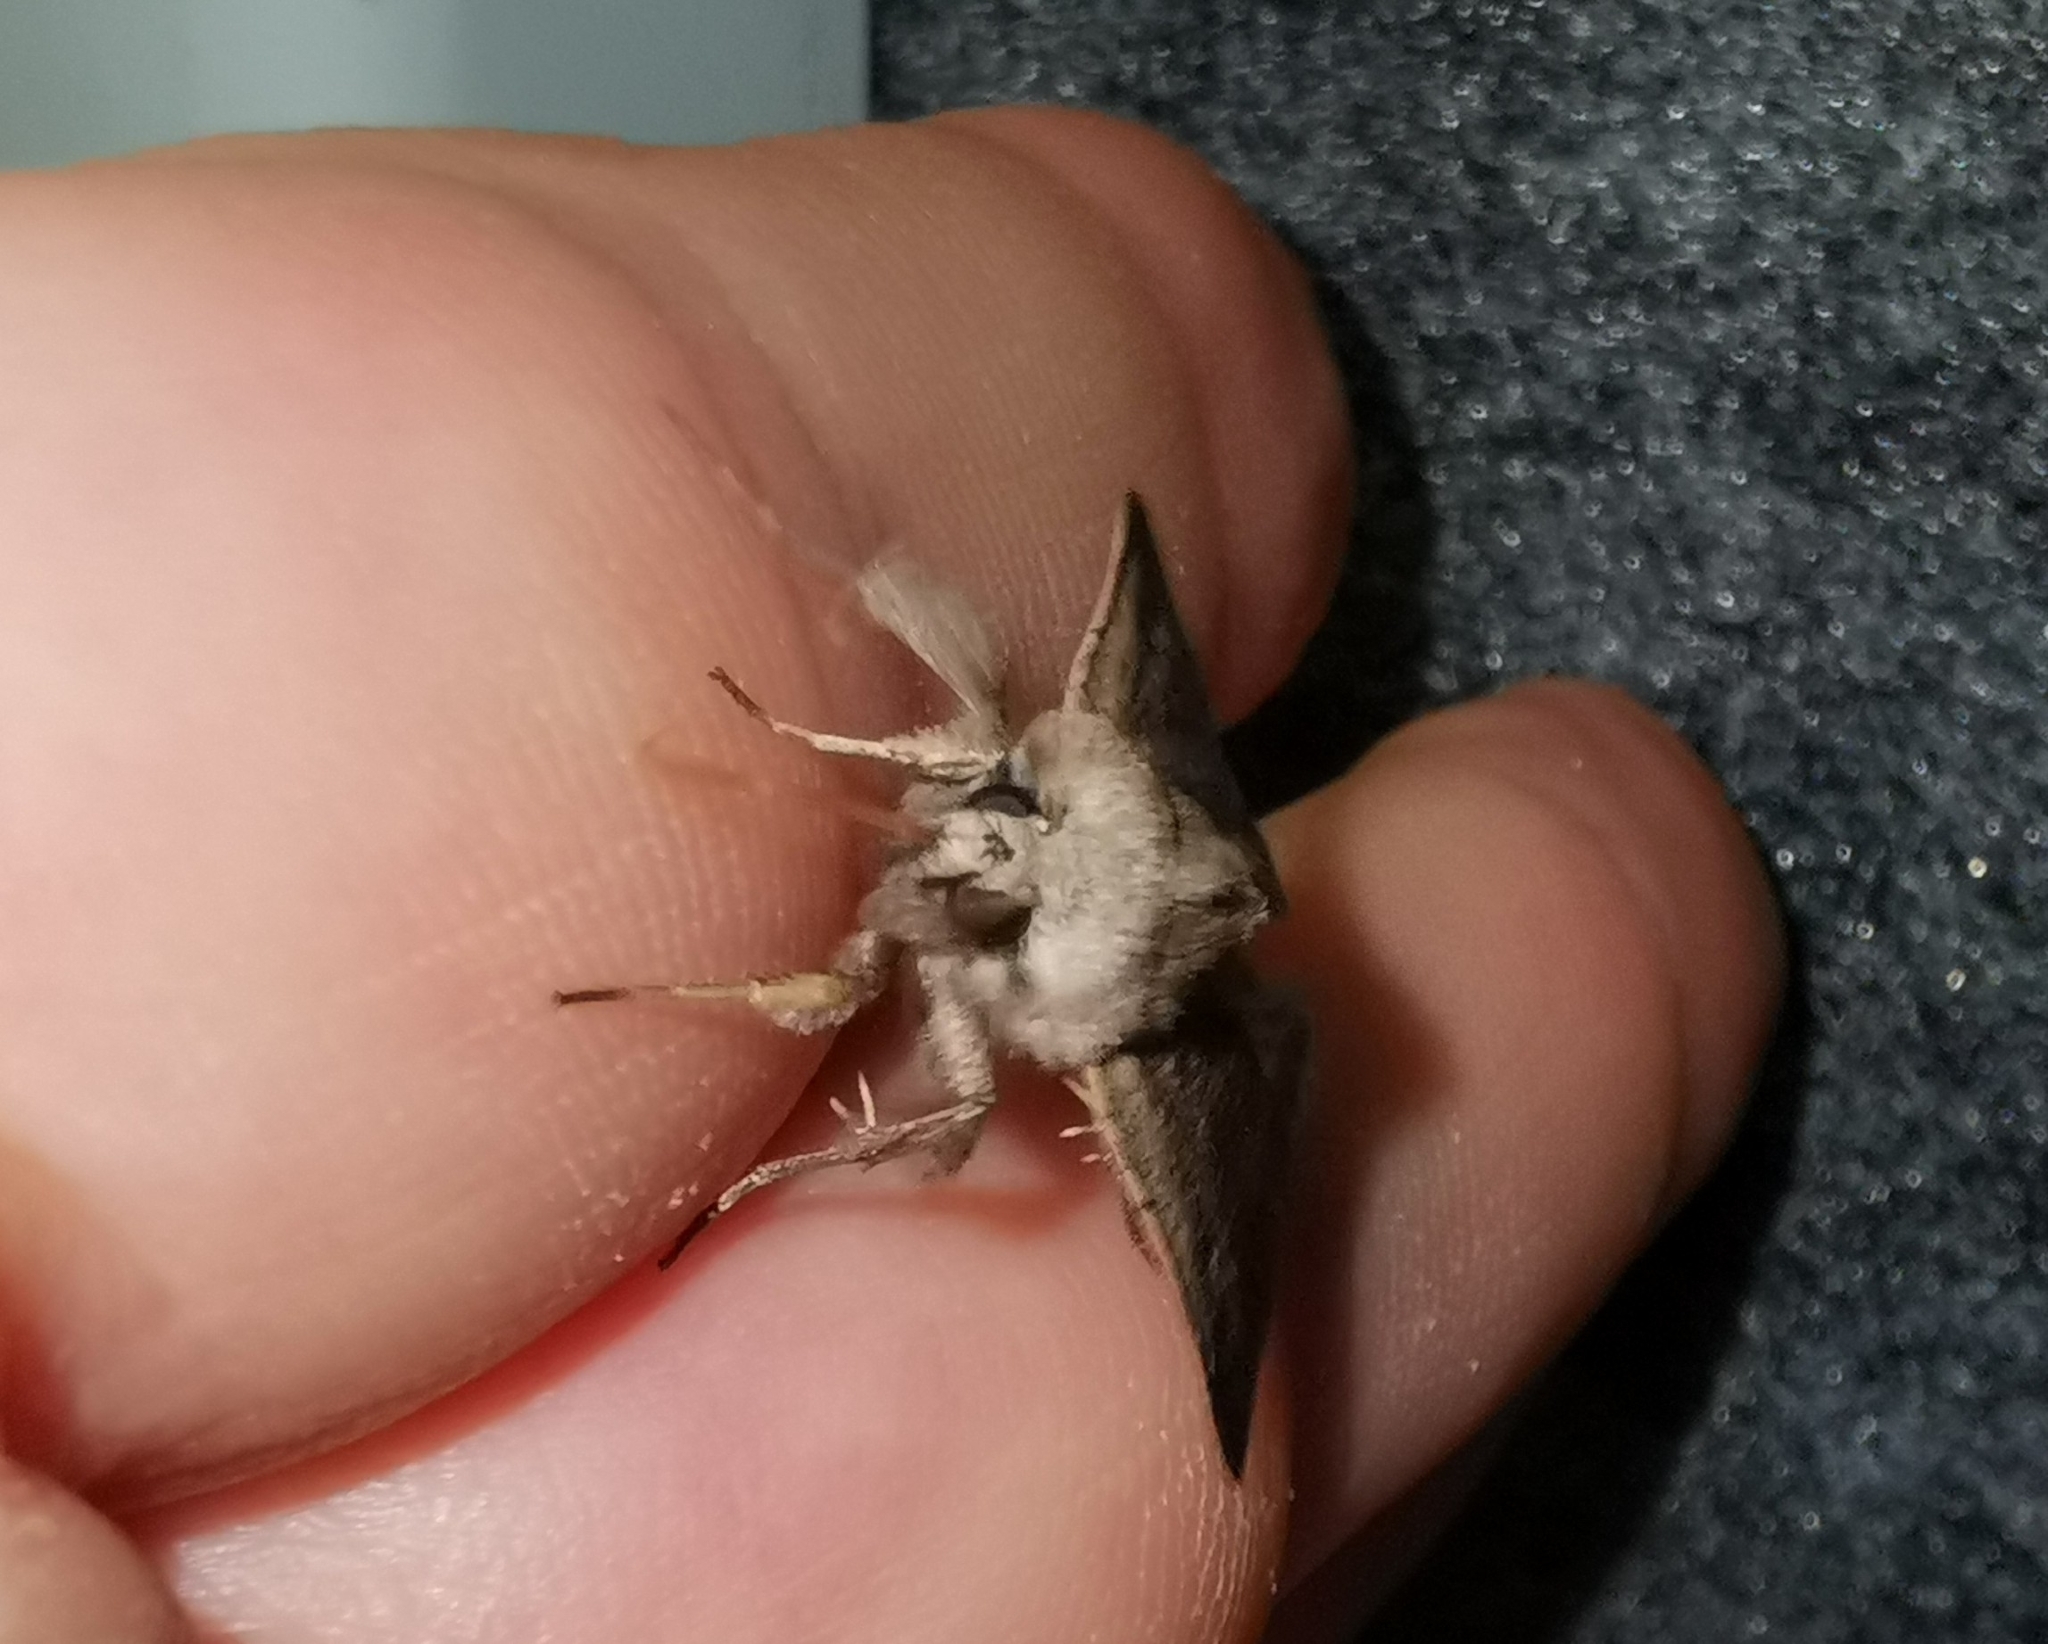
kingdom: Animalia
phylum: Arthropoda
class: Insecta
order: Lepidoptera
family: Noctuidae
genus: Xestia
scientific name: Xestia xanthographa
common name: Square-spot rustic
